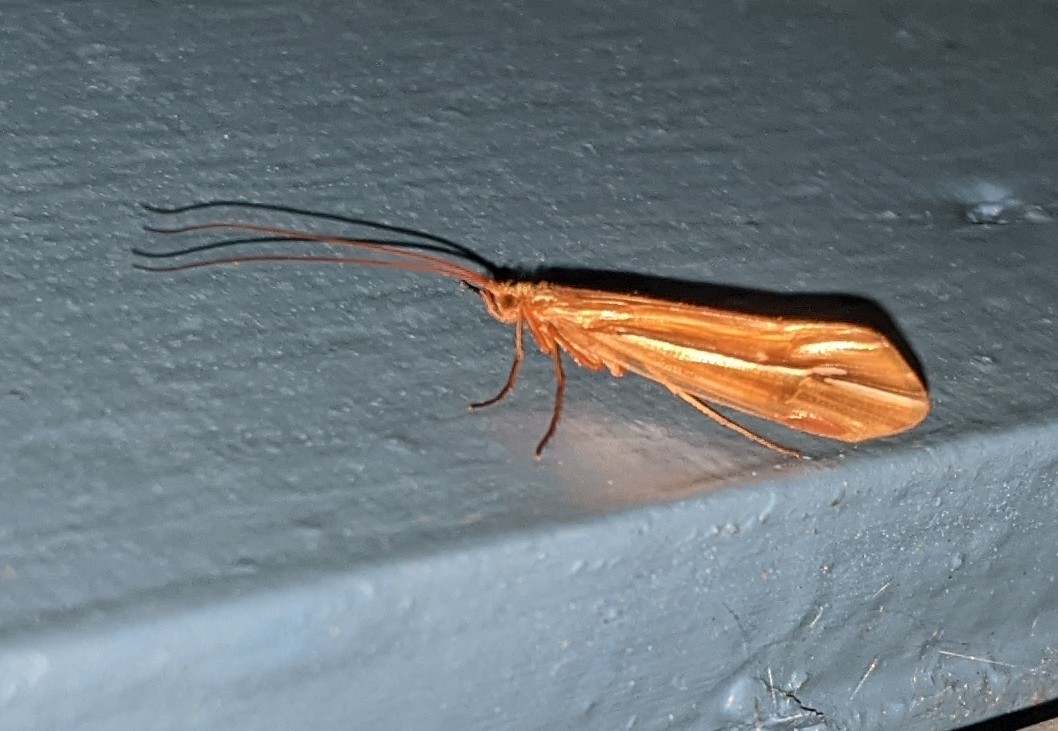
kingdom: Animalia
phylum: Arthropoda
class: Insecta
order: Trichoptera
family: Limnephilidae
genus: Psychoglypha
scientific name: Psychoglypha subborealis
